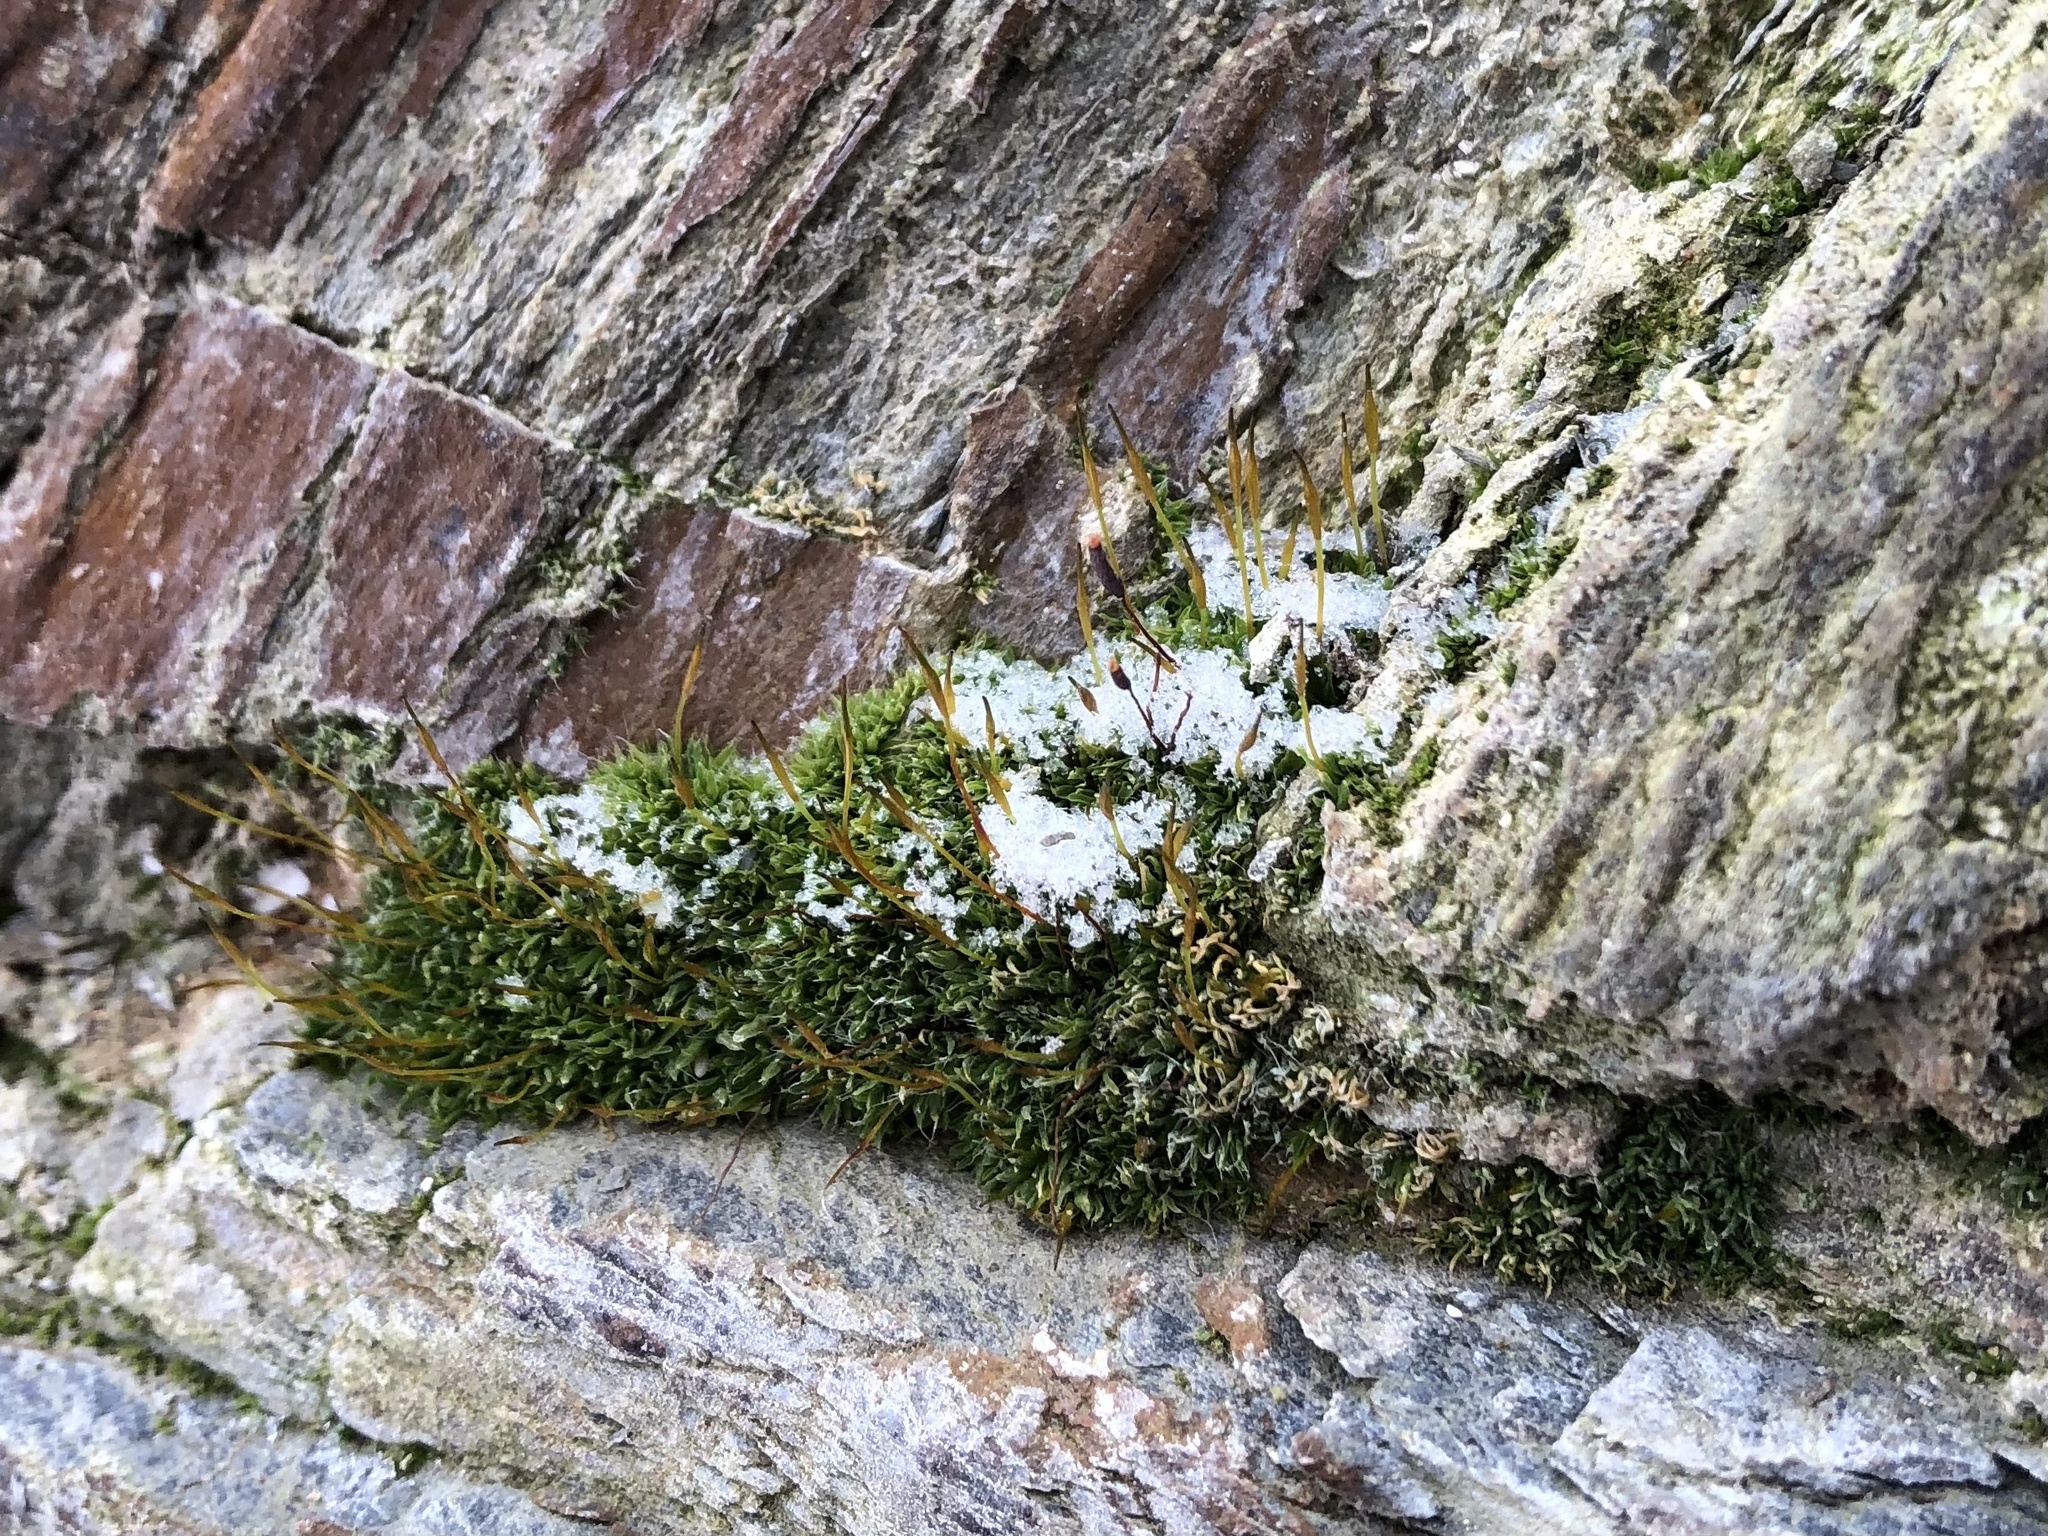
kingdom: Plantae
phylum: Bryophyta
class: Bryopsida
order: Pottiales
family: Pottiaceae
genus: Tortula
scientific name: Tortula muralis
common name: Wall screw-moss
